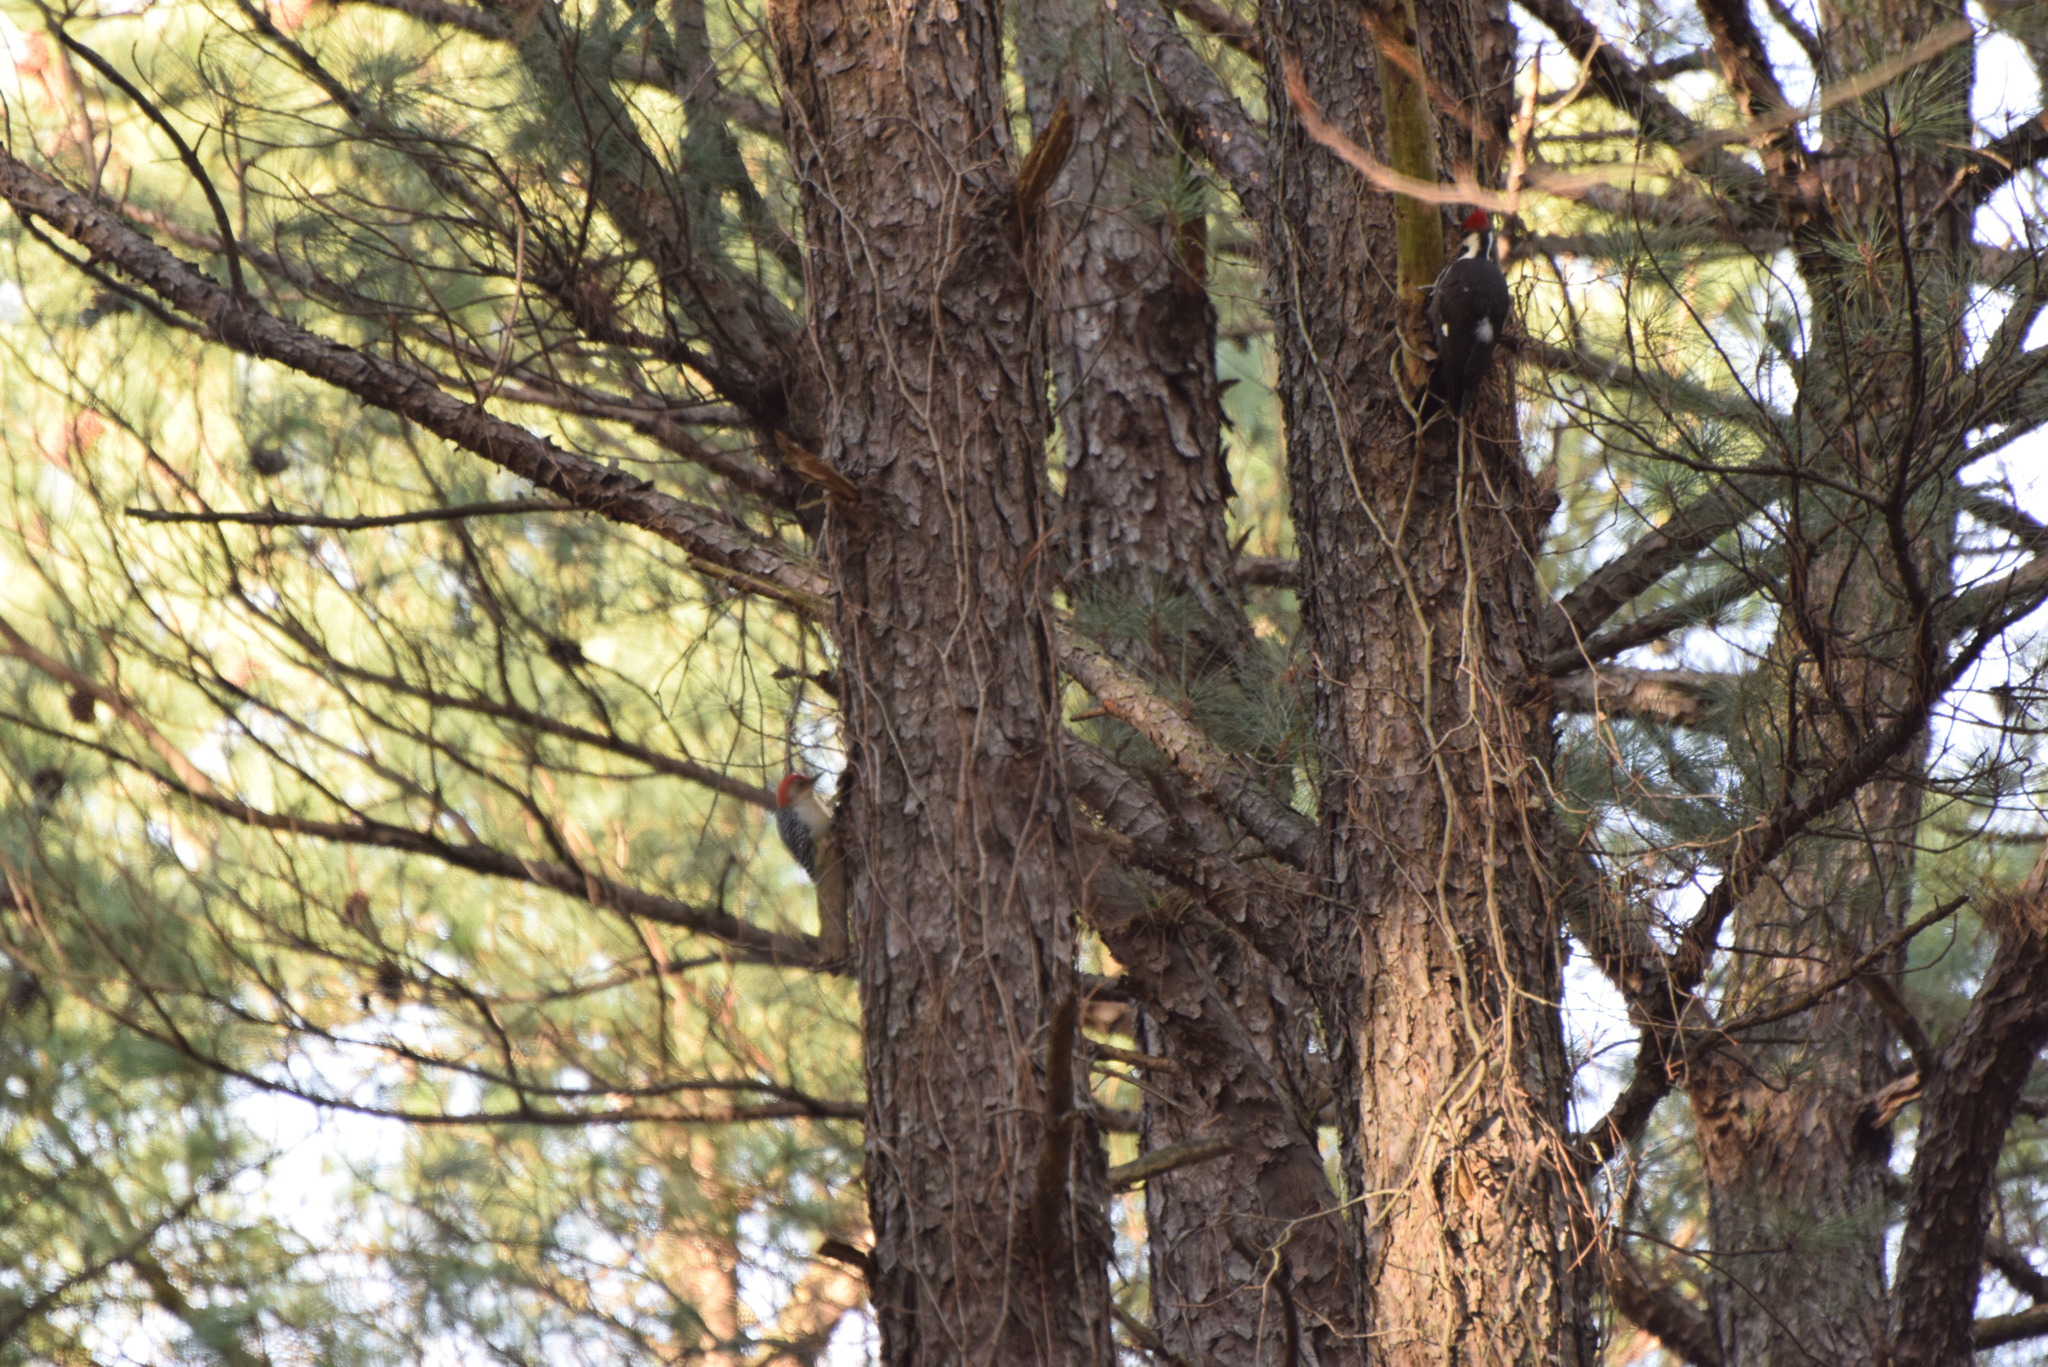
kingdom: Animalia
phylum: Chordata
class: Aves
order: Piciformes
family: Picidae
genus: Melanerpes
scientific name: Melanerpes carolinus
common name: Red-bellied woodpecker
